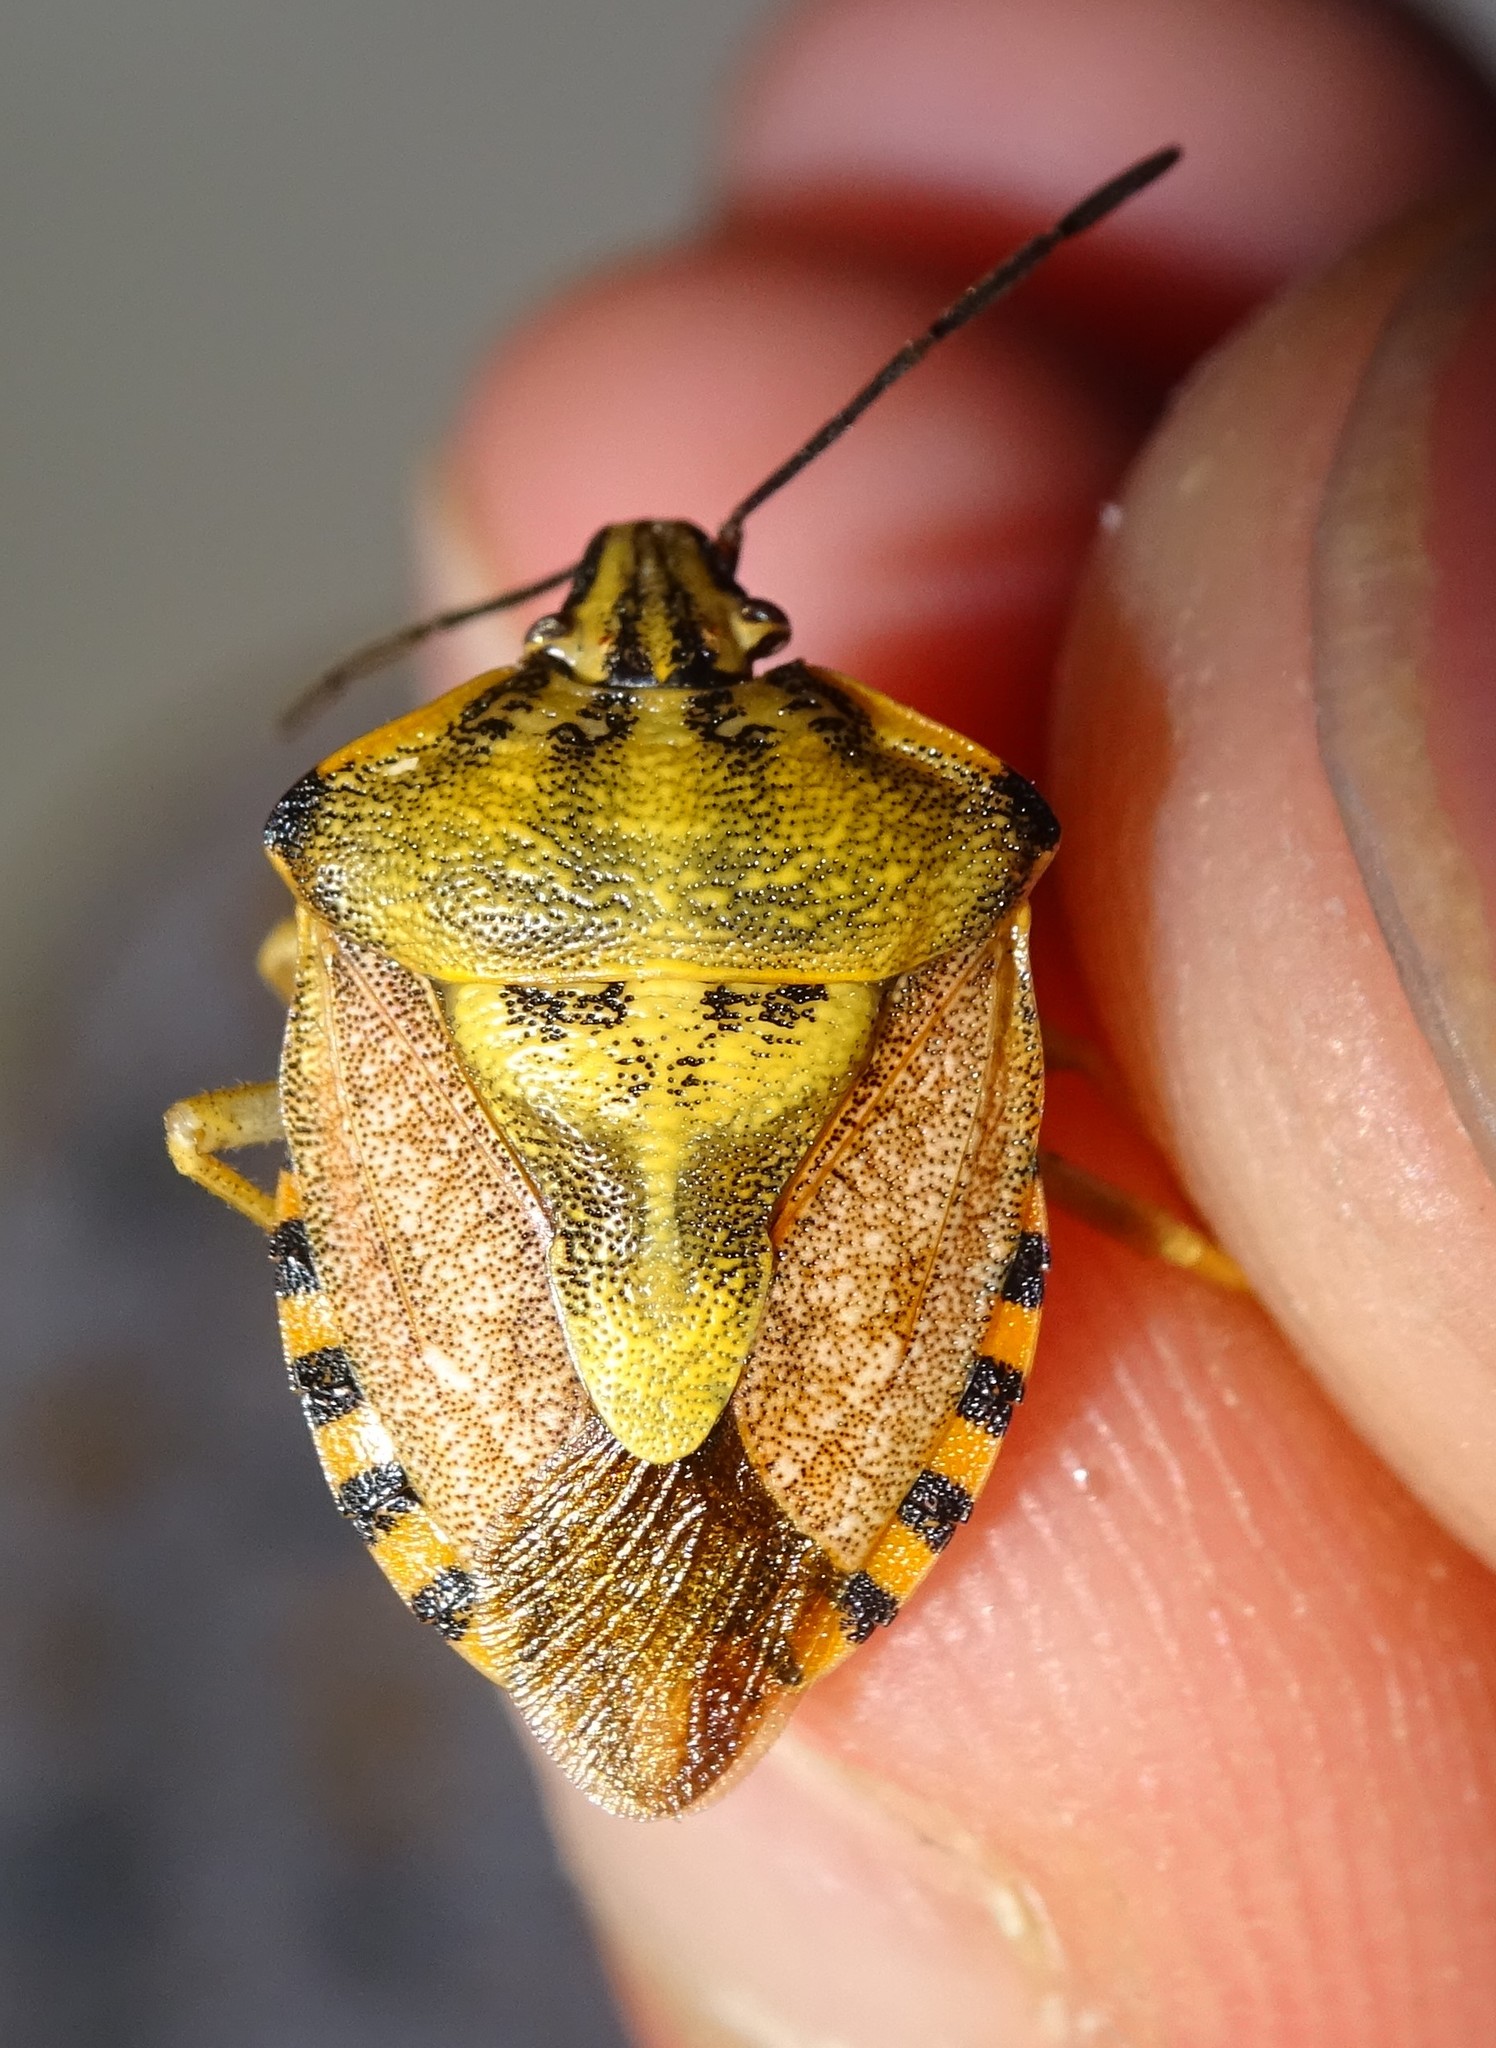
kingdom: Animalia
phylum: Arthropoda
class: Insecta
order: Hemiptera
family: Pentatomidae
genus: Carpocoris
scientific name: Carpocoris purpureipennis
